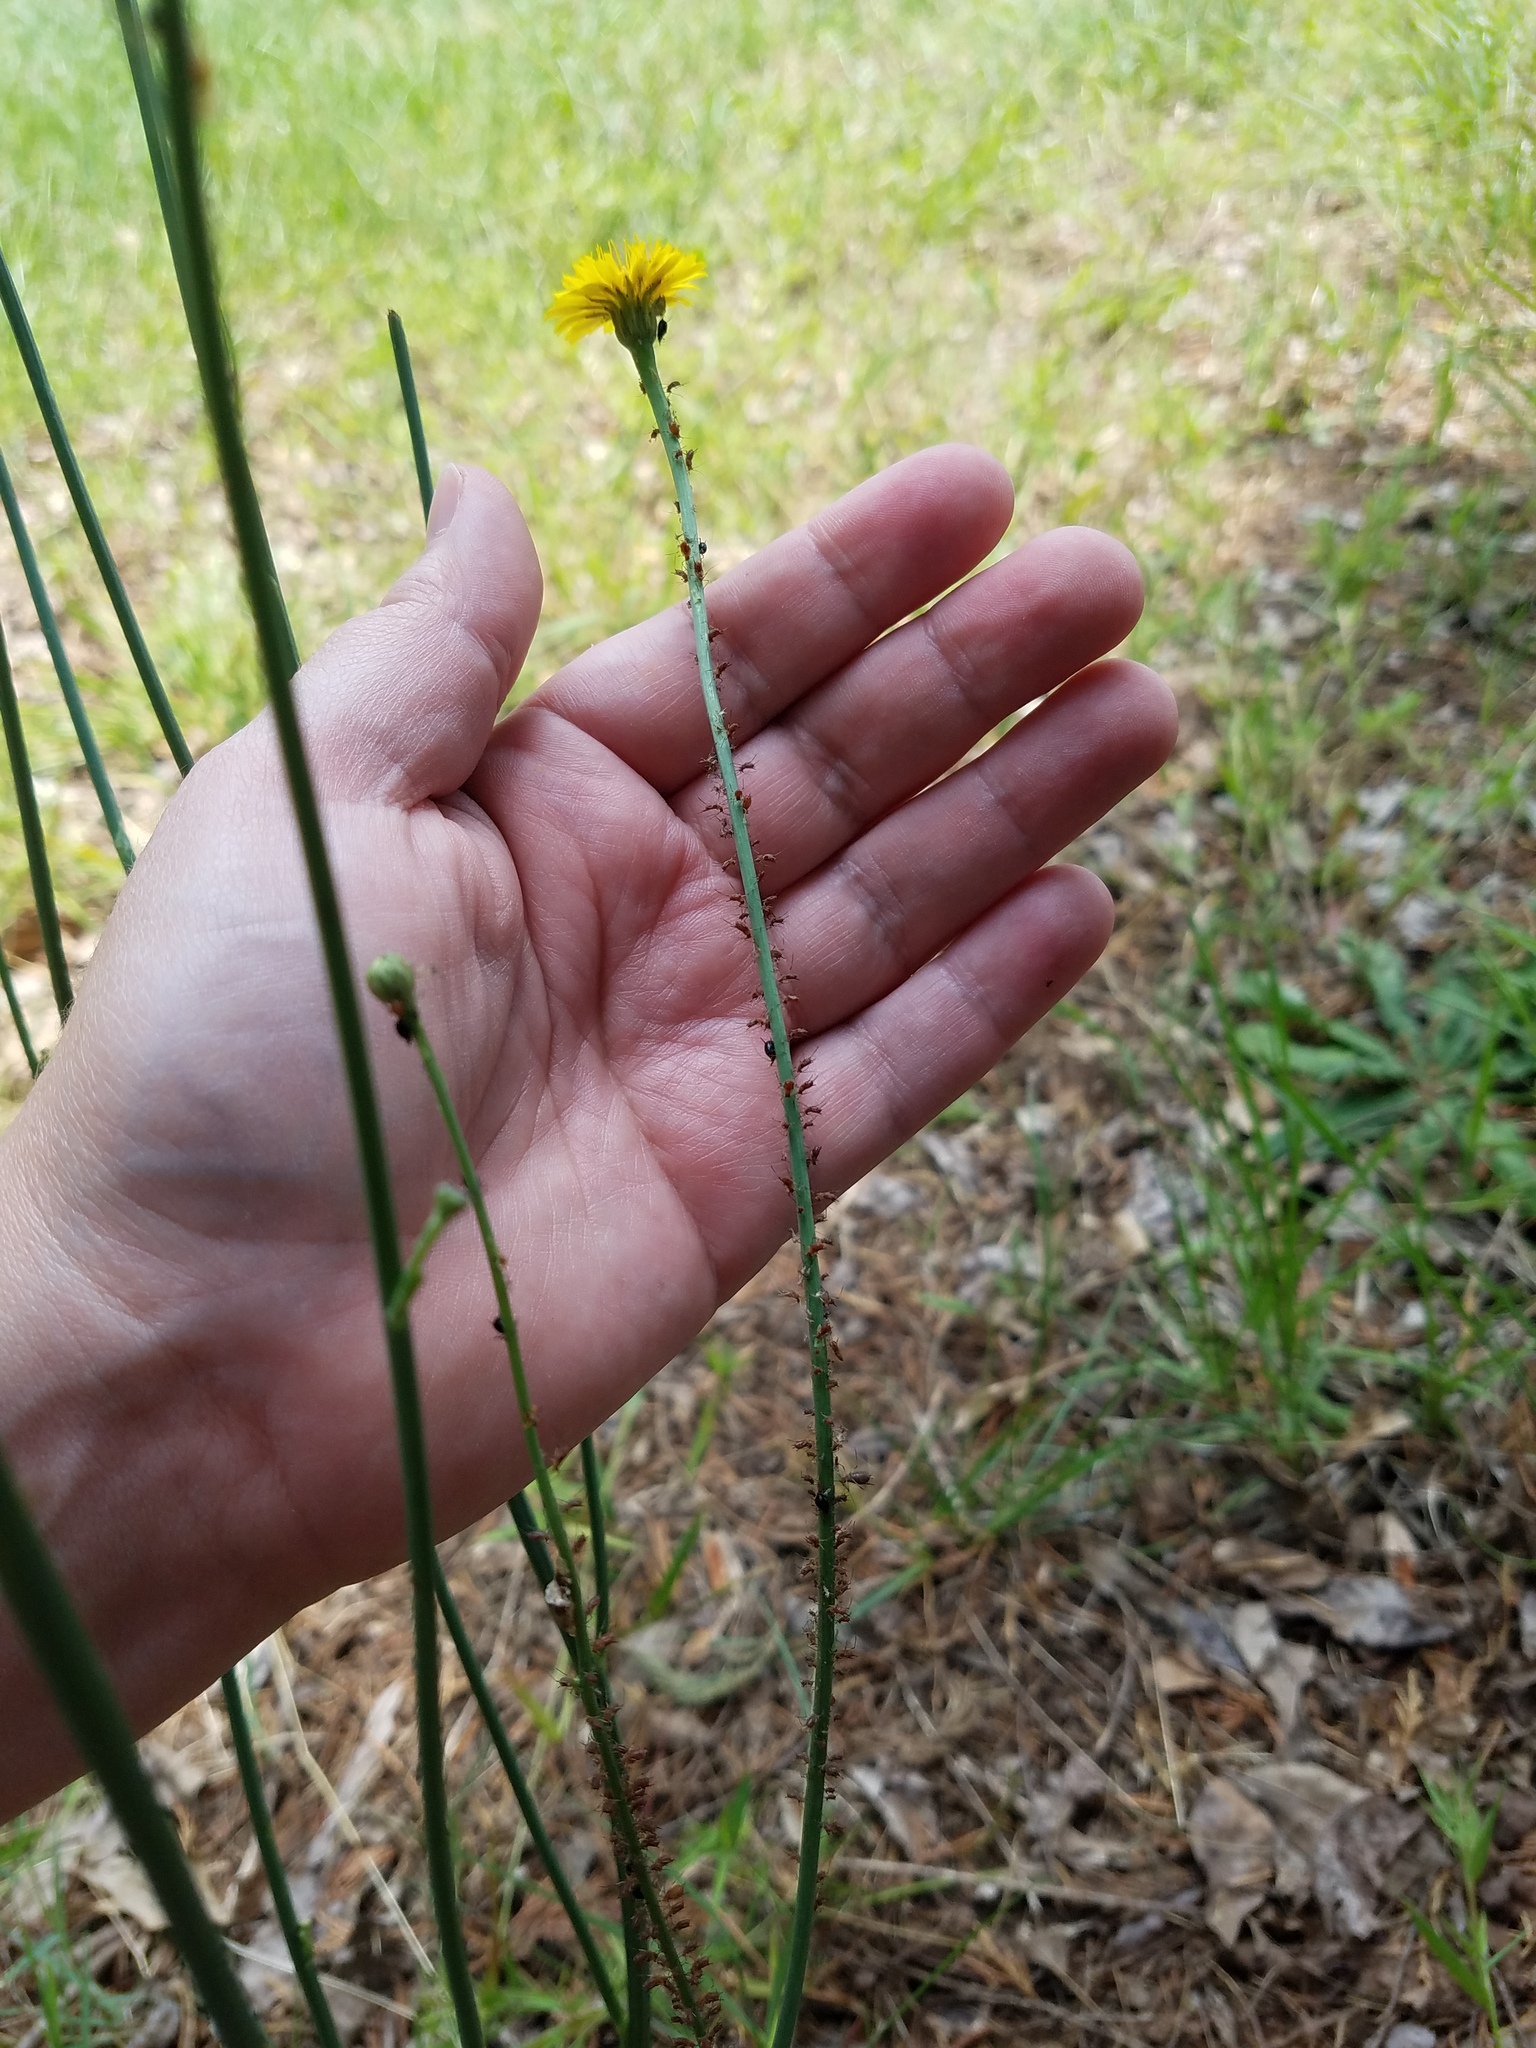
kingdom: Plantae
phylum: Tracheophyta
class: Magnoliopsida
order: Asterales
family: Asteraceae
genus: Hypochaeris
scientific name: Hypochaeris radicata
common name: Flatweed
